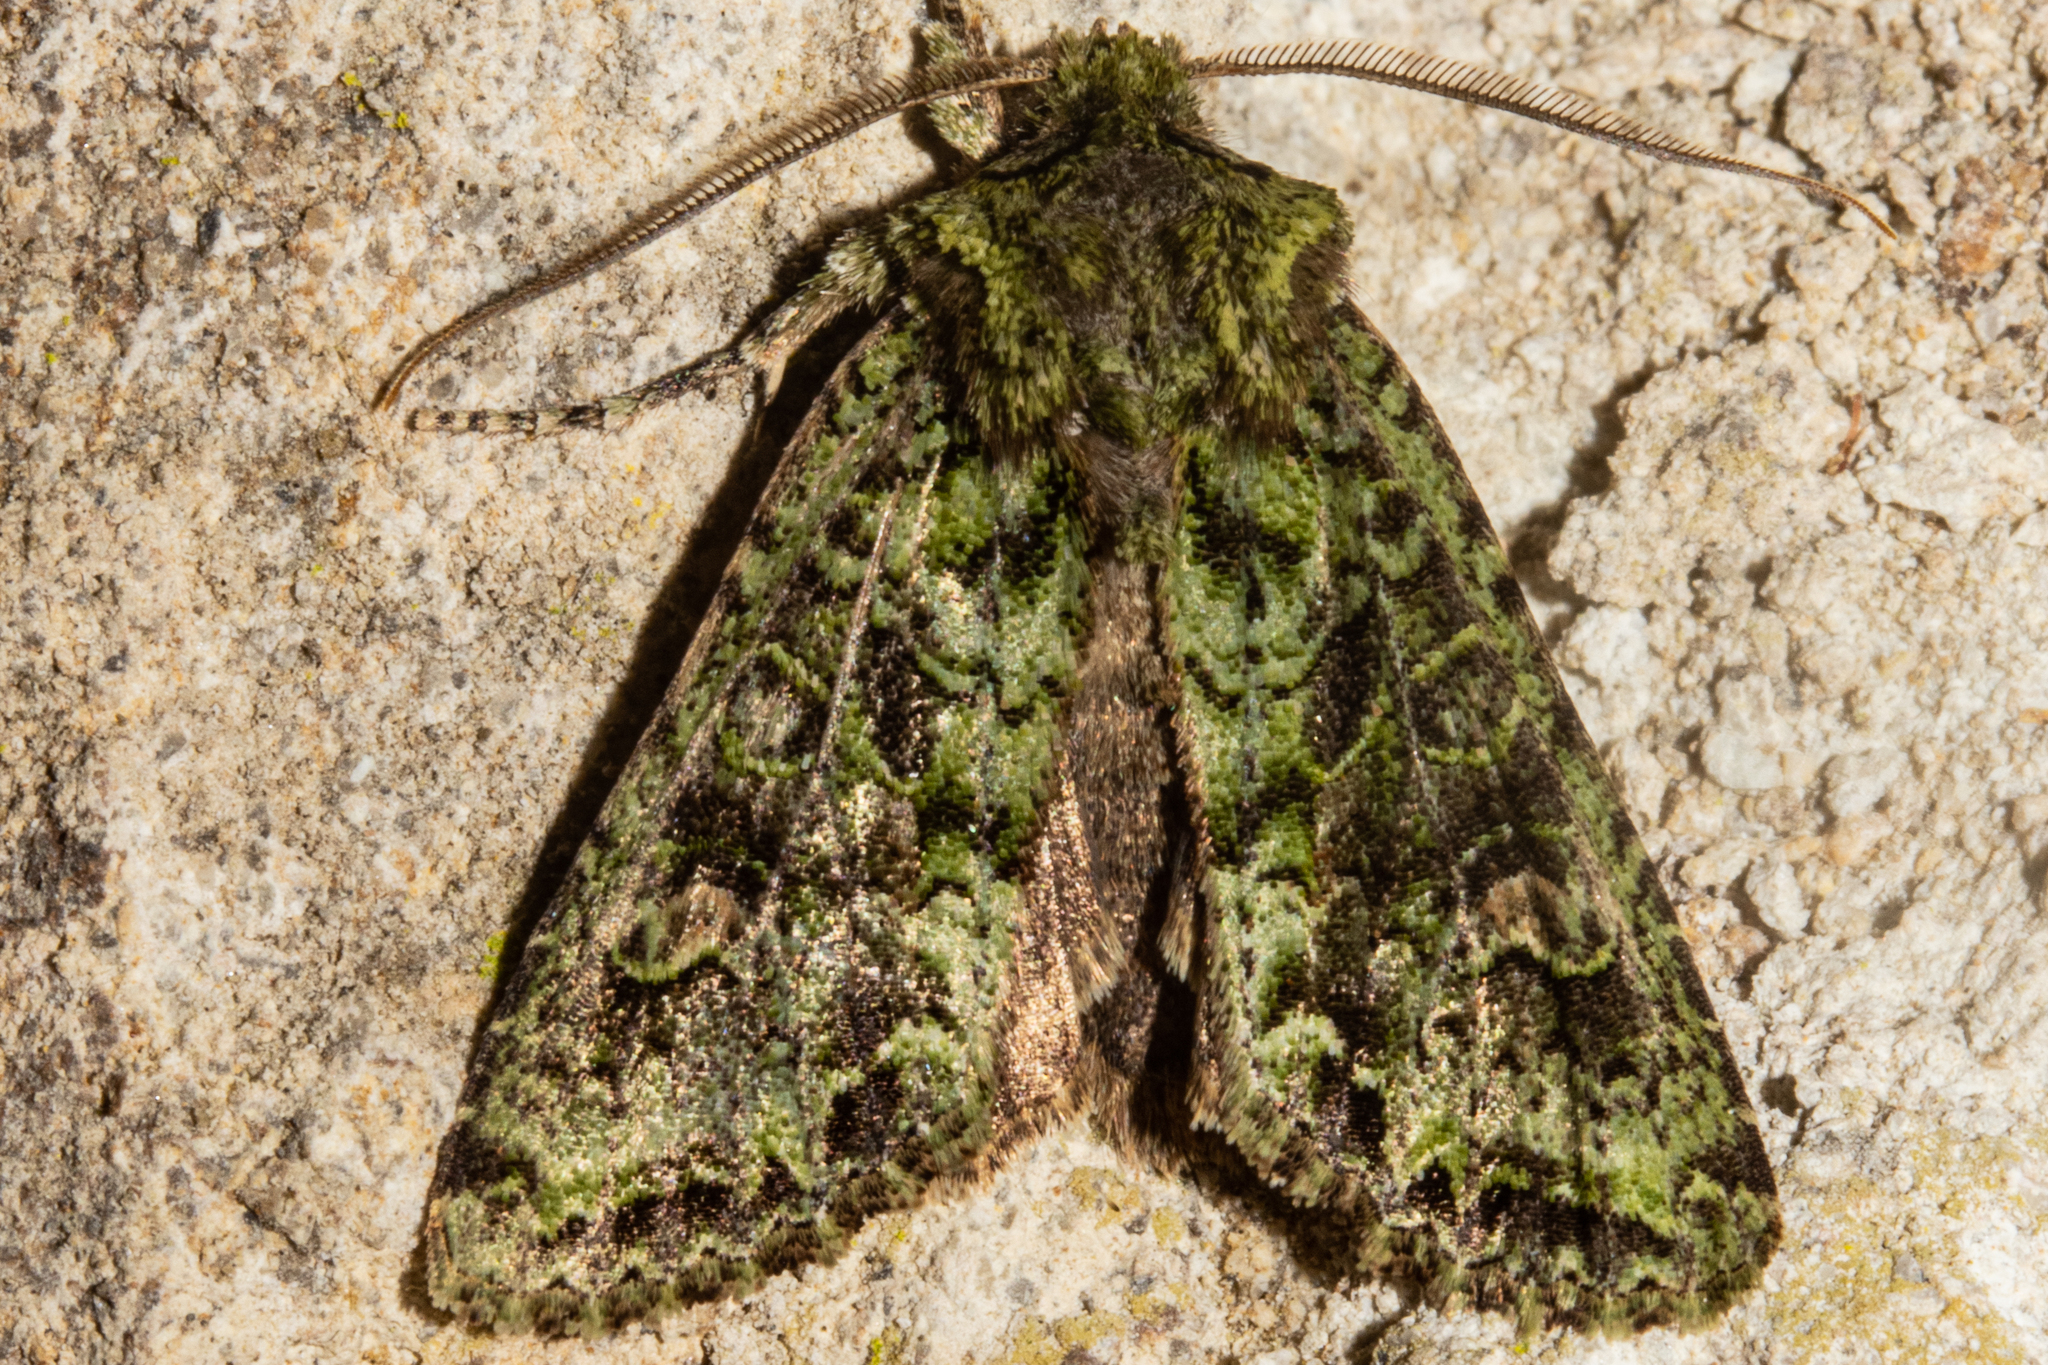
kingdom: Animalia
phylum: Arthropoda
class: Insecta
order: Lepidoptera
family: Noctuidae
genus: Ichneutica
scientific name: Ichneutica
